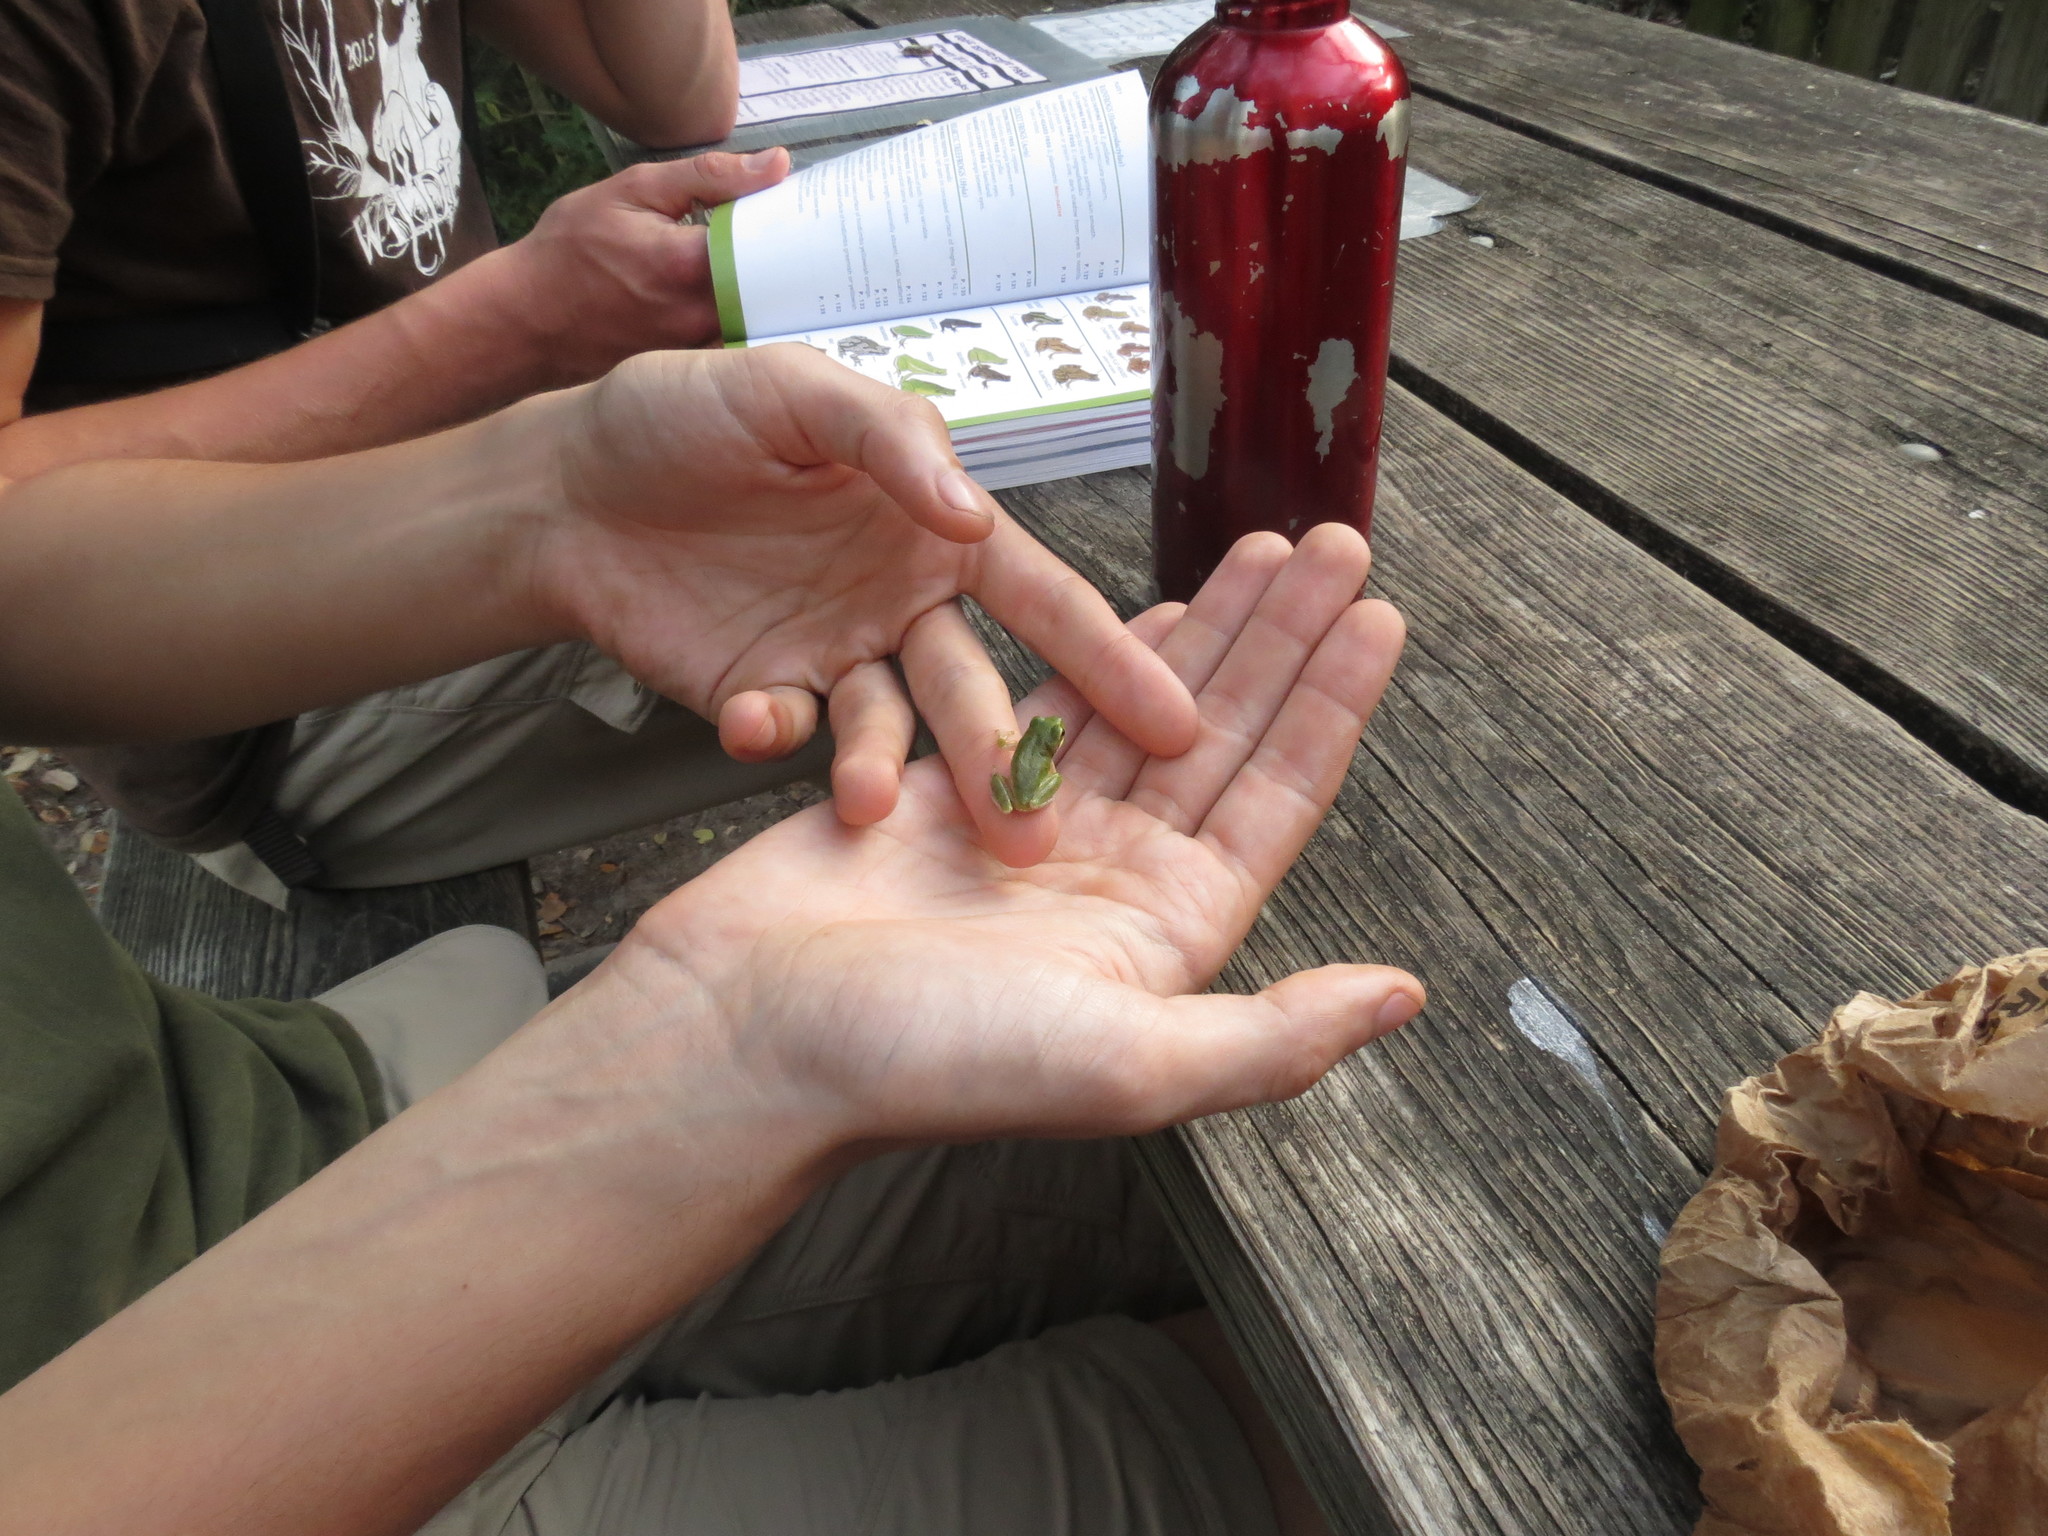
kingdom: Animalia
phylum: Chordata
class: Amphibia
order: Anura
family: Hylidae
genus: Dryophytes
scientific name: Dryophytes squirellus
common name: Squirrel treefrog
